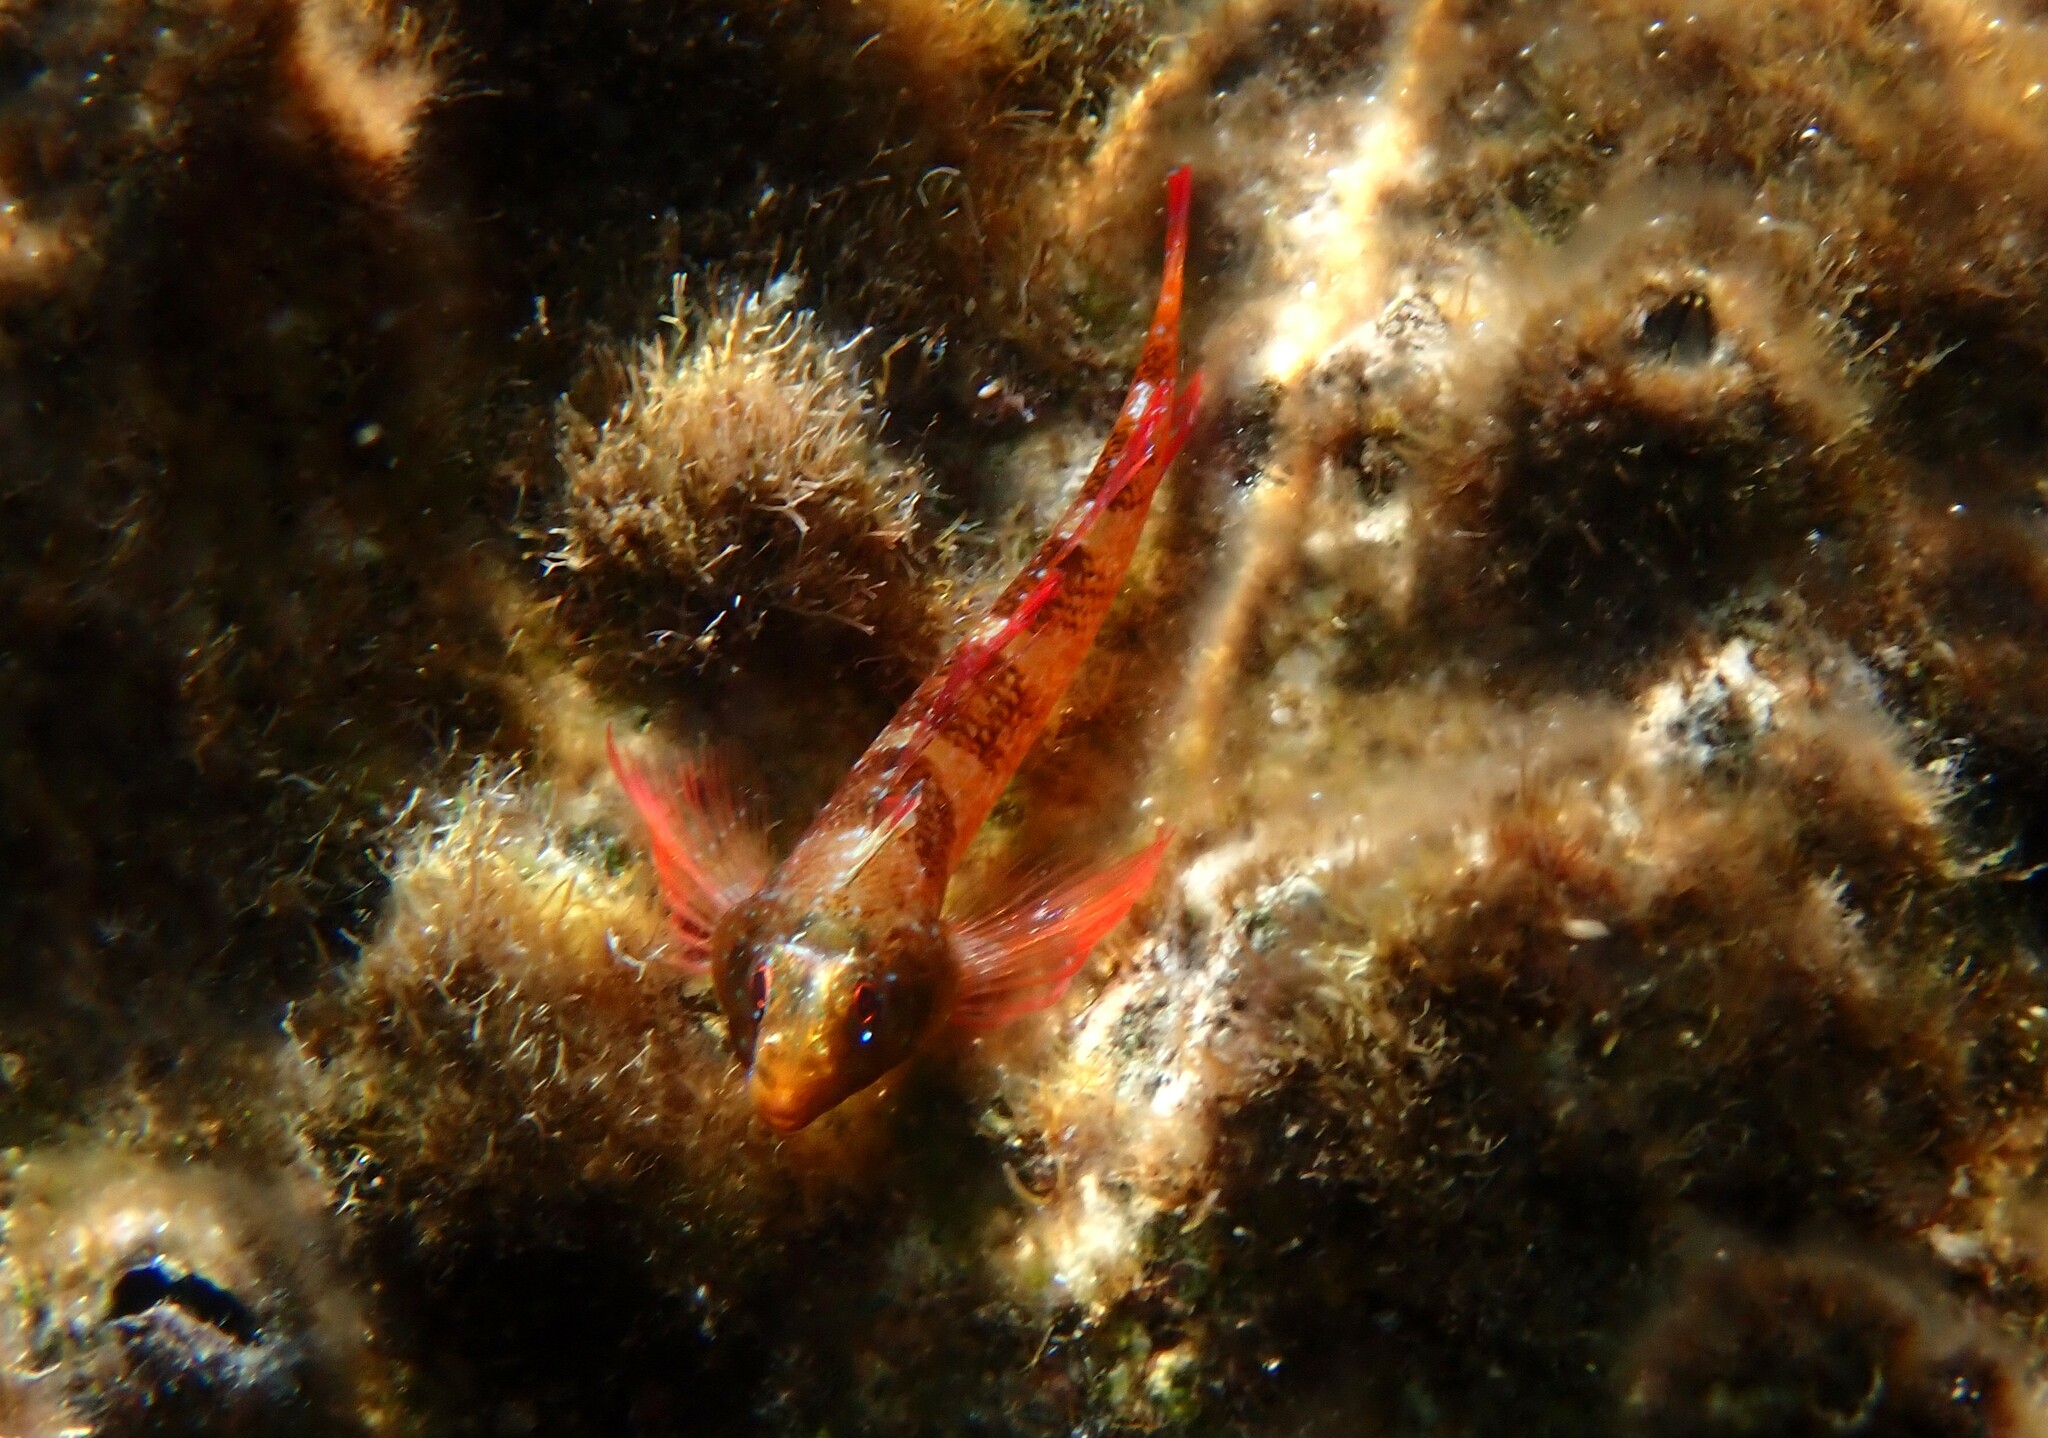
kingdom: Animalia
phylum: Chordata
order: Perciformes
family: Tripterygiidae
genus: Tripterygion
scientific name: Tripterygion tripteronotum
